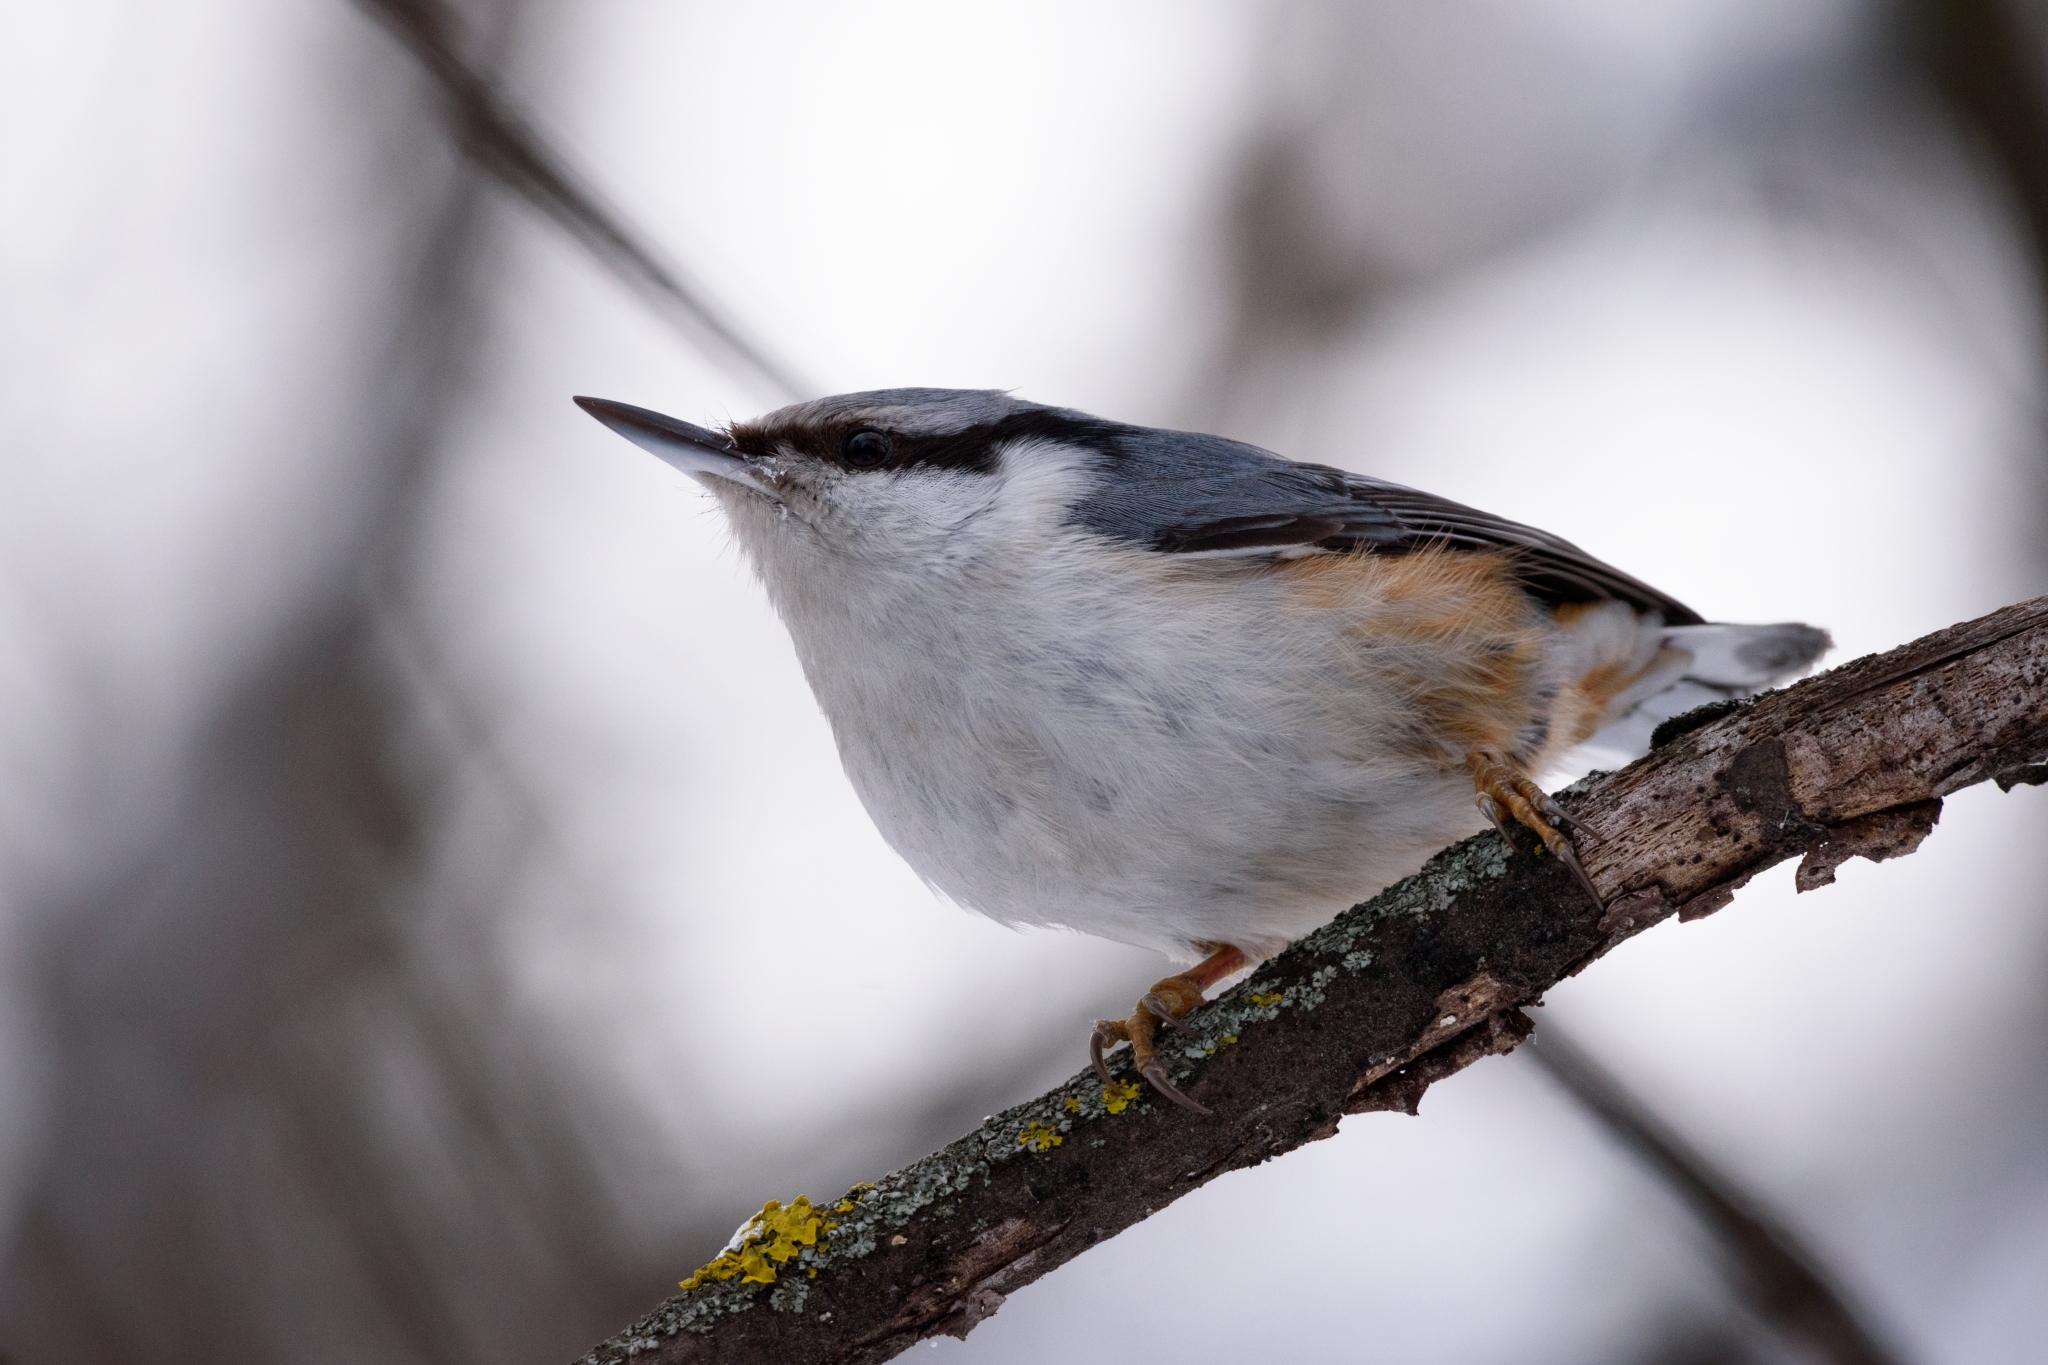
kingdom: Animalia
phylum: Chordata
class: Aves
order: Passeriformes
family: Sittidae
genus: Sitta
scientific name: Sitta europaea
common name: Eurasian nuthatch
